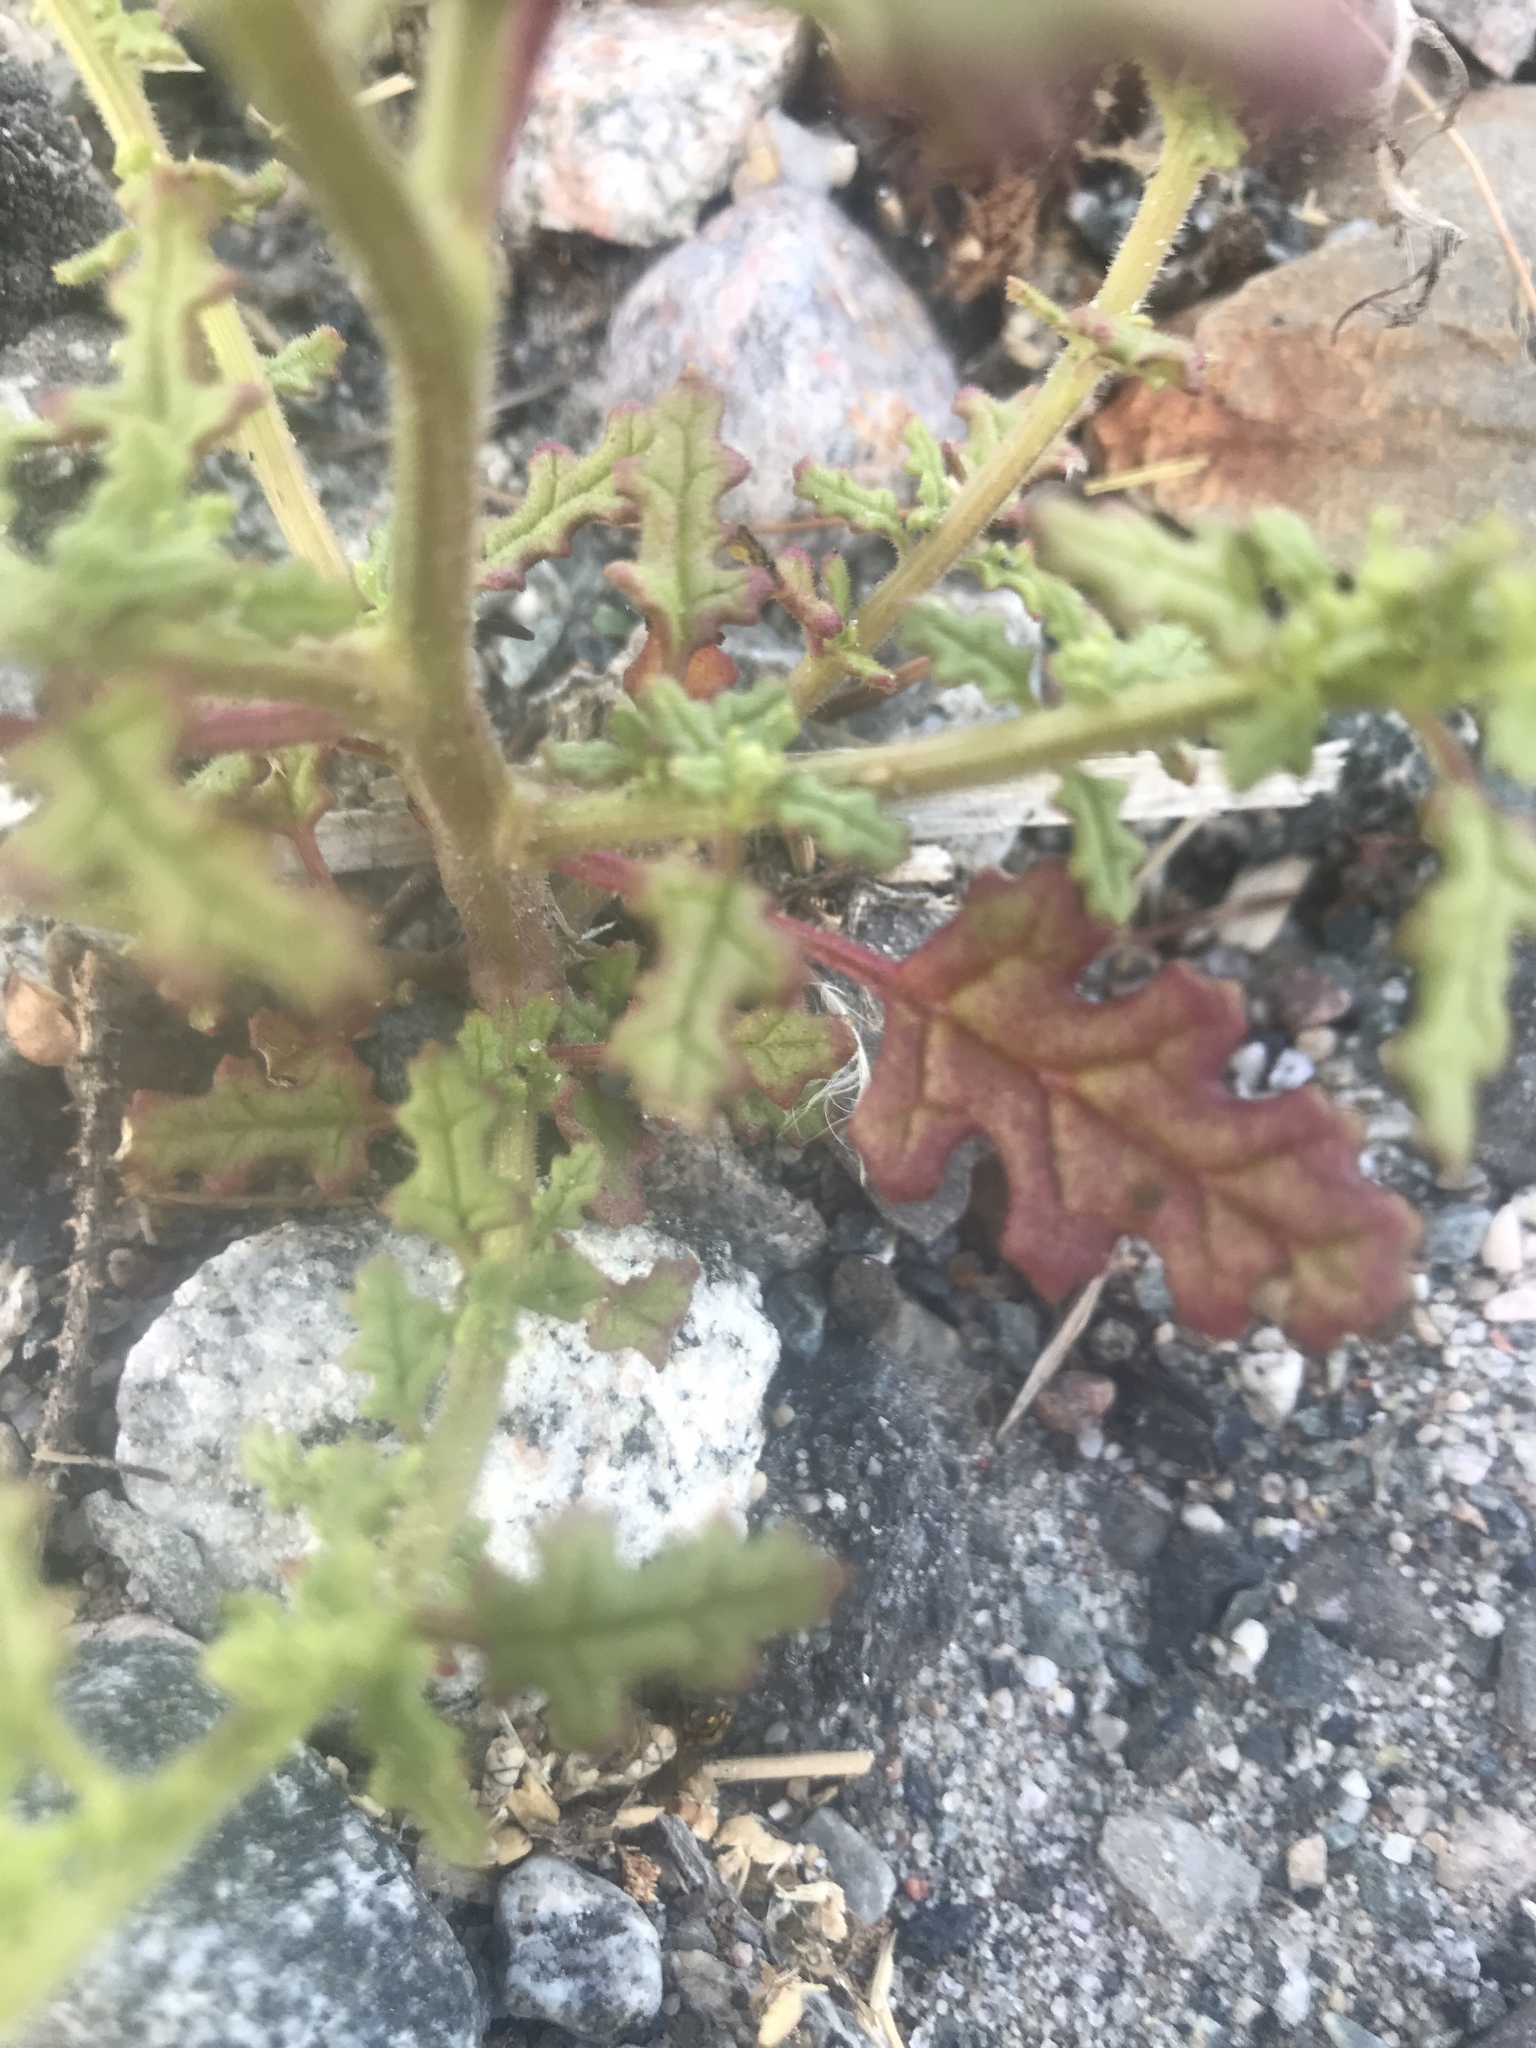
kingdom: Plantae
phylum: Tracheophyta
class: Magnoliopsida
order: Caryophyllales
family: Amaranthaceae
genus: Dysphania
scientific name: Dysphania botrys
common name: Feather-geranium
